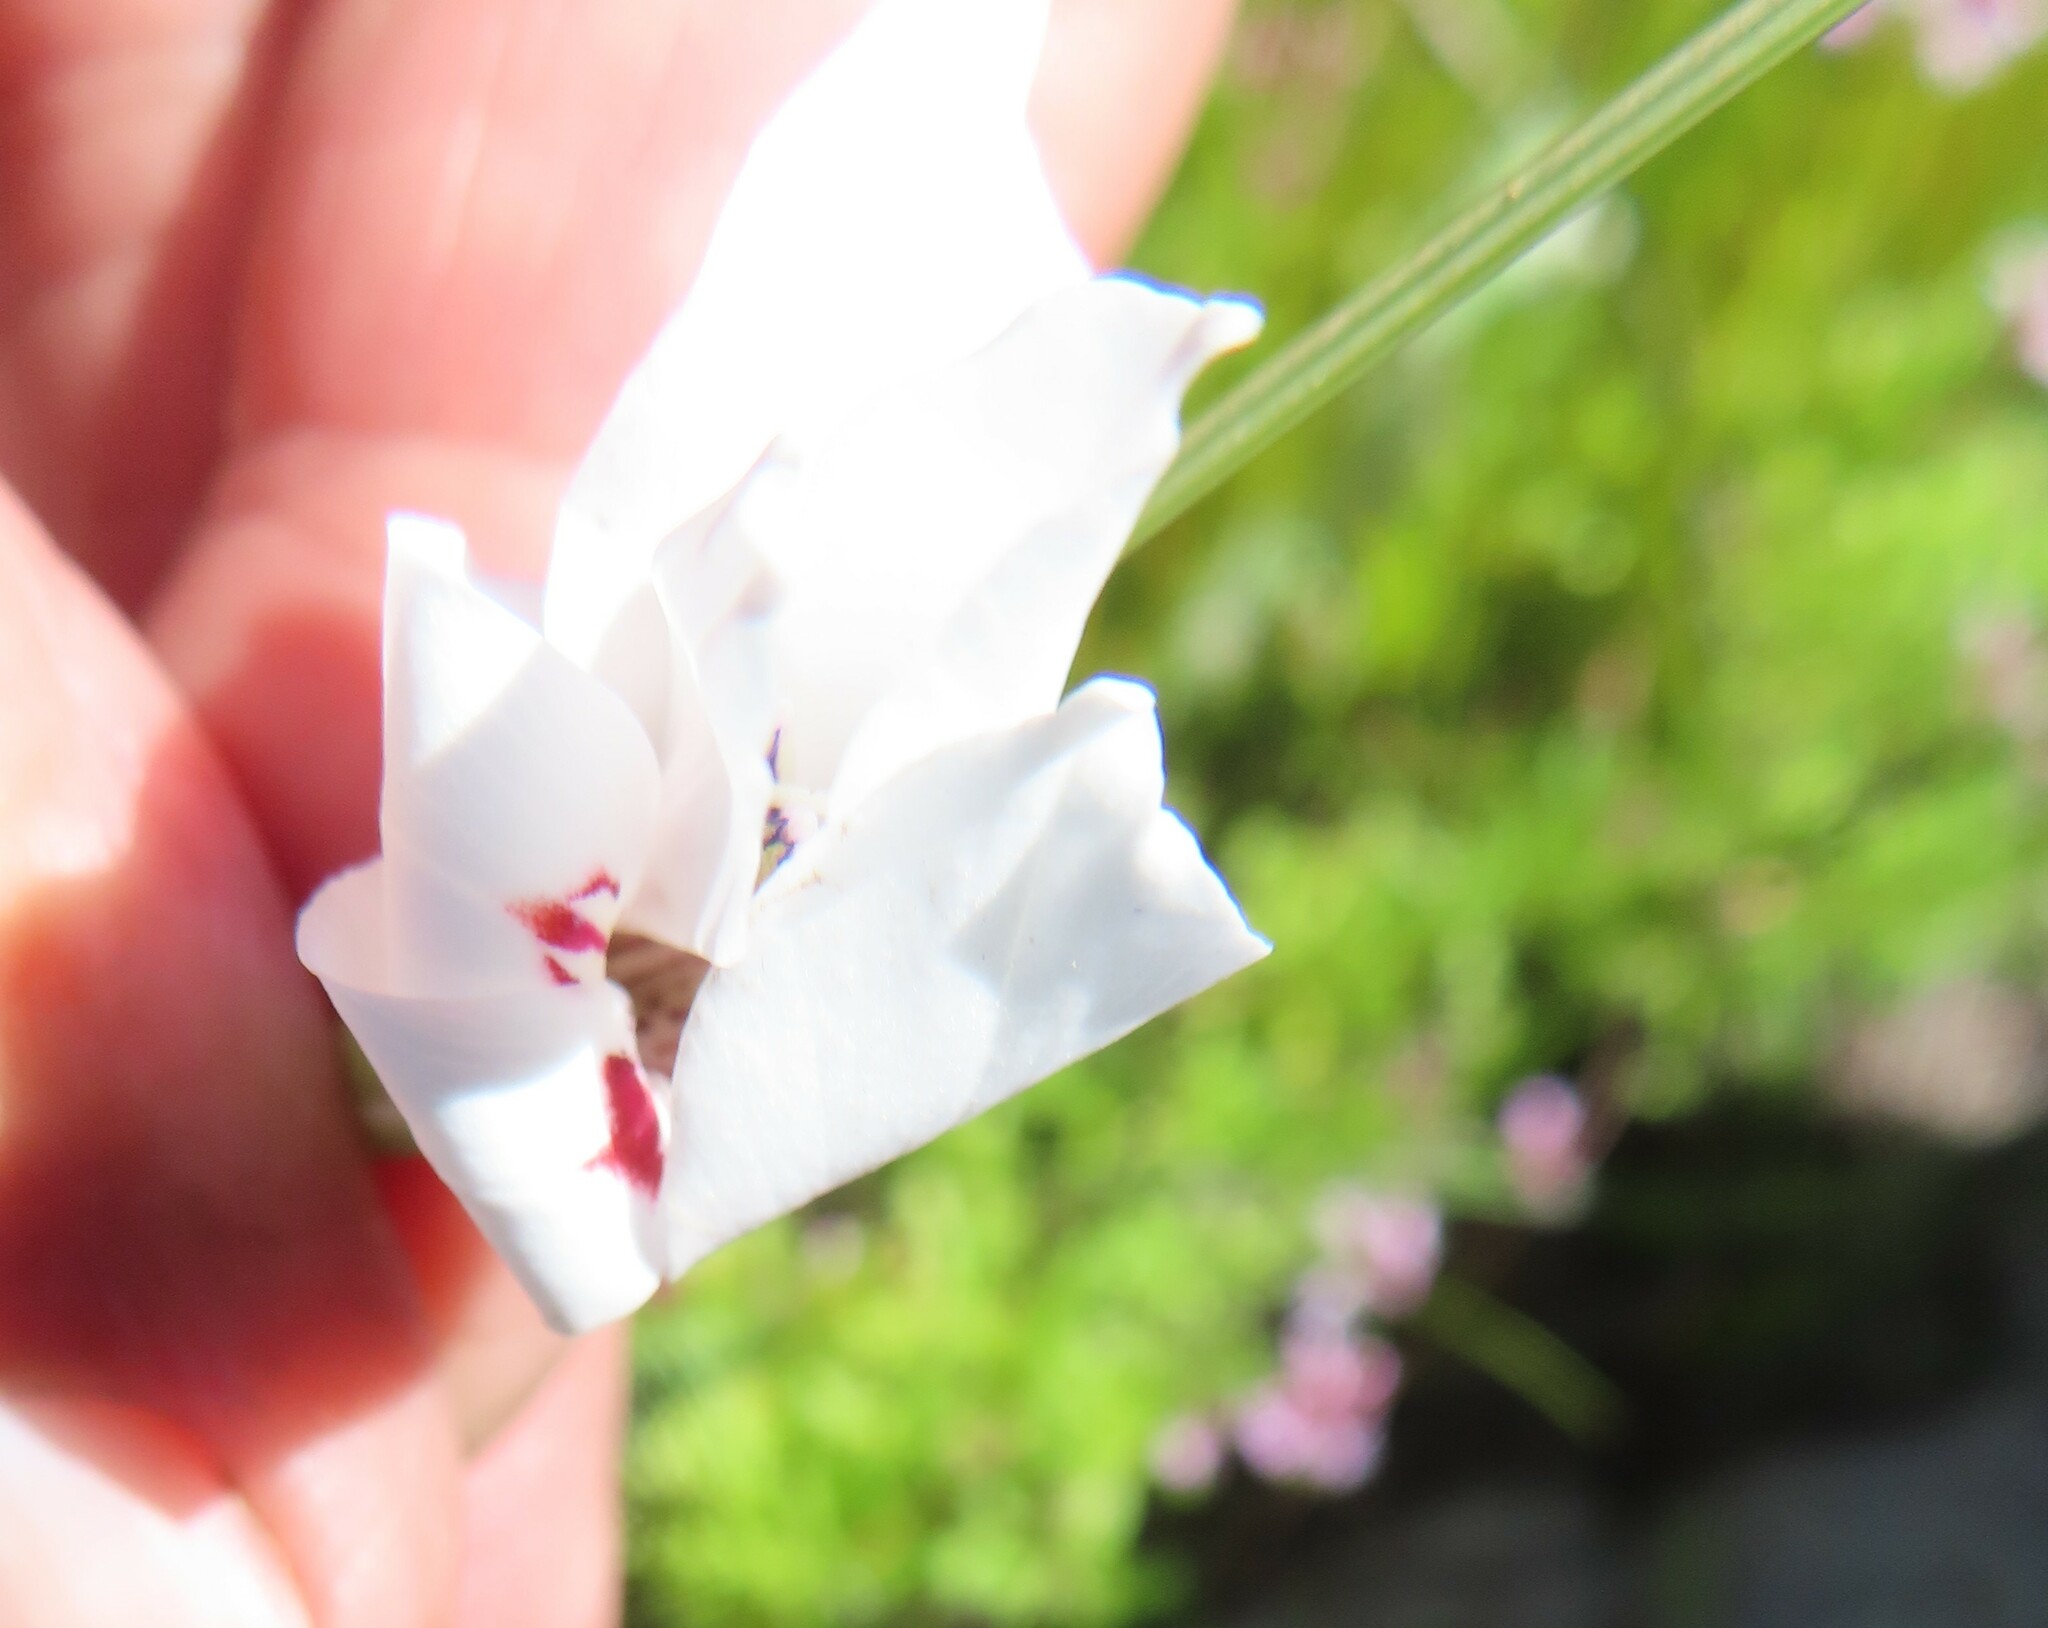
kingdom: Plantae
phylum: Tracheophyta
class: Liliopsida
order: Asparagales
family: Iridaceae
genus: Gladiolus
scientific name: Gladiolus debilis
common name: Painted-lady
